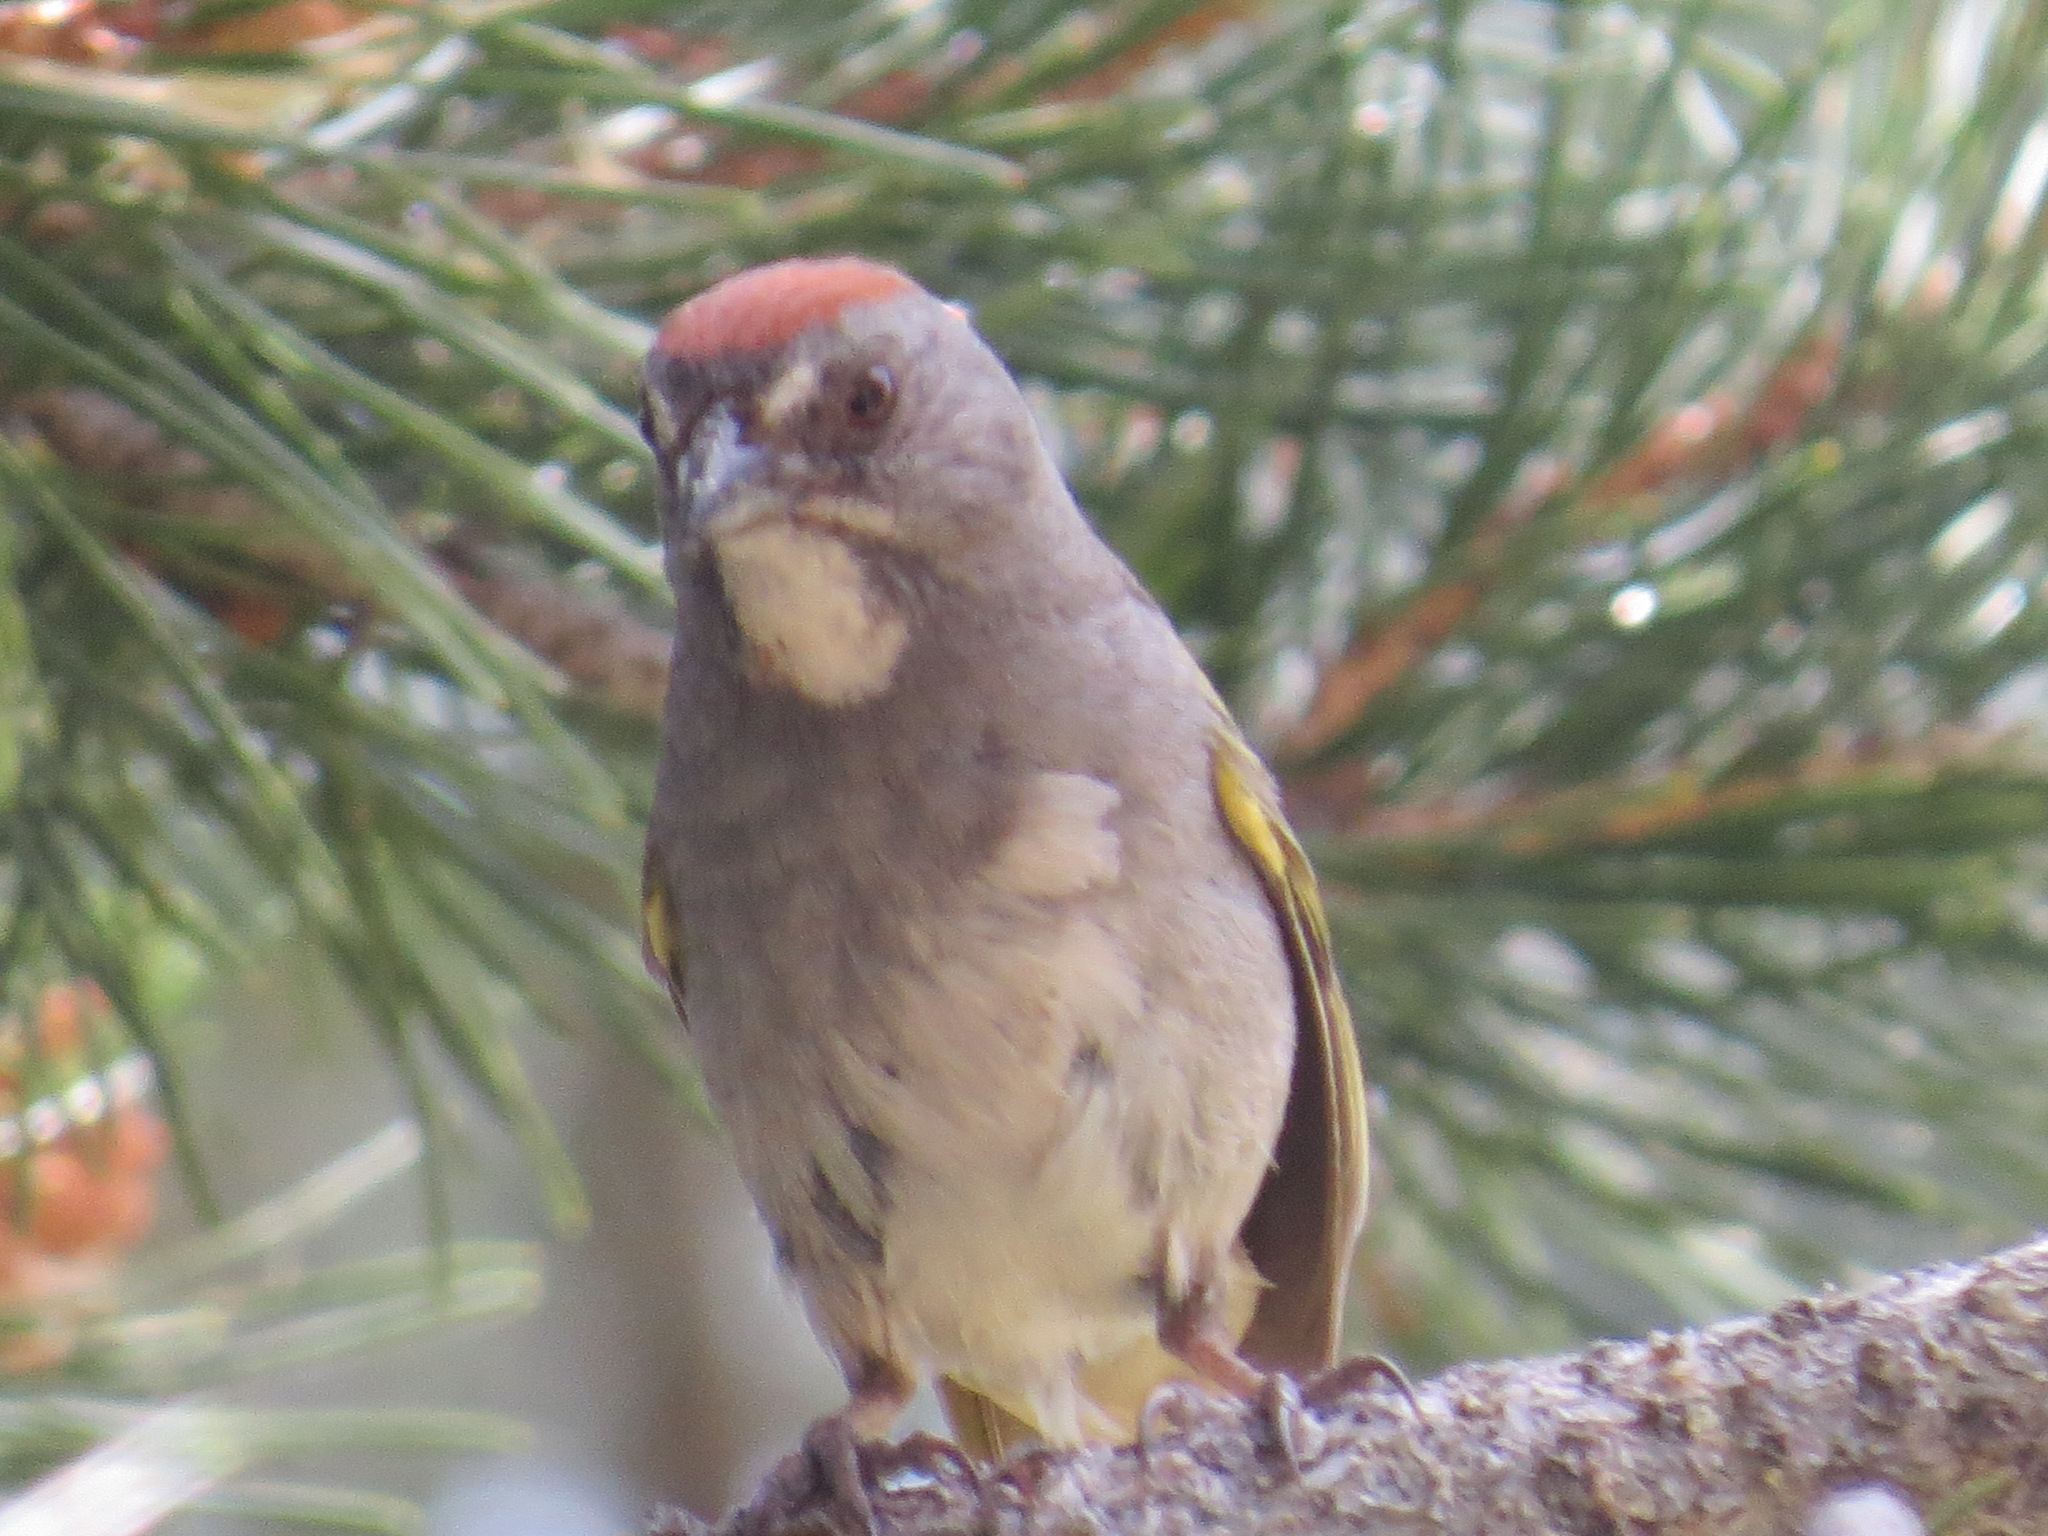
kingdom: Animalia
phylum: Chordata
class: Aves
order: Passeriformes
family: Passerellidae
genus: Pipilo
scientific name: Pipilo chlorurus
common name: Green-tailed towhee
